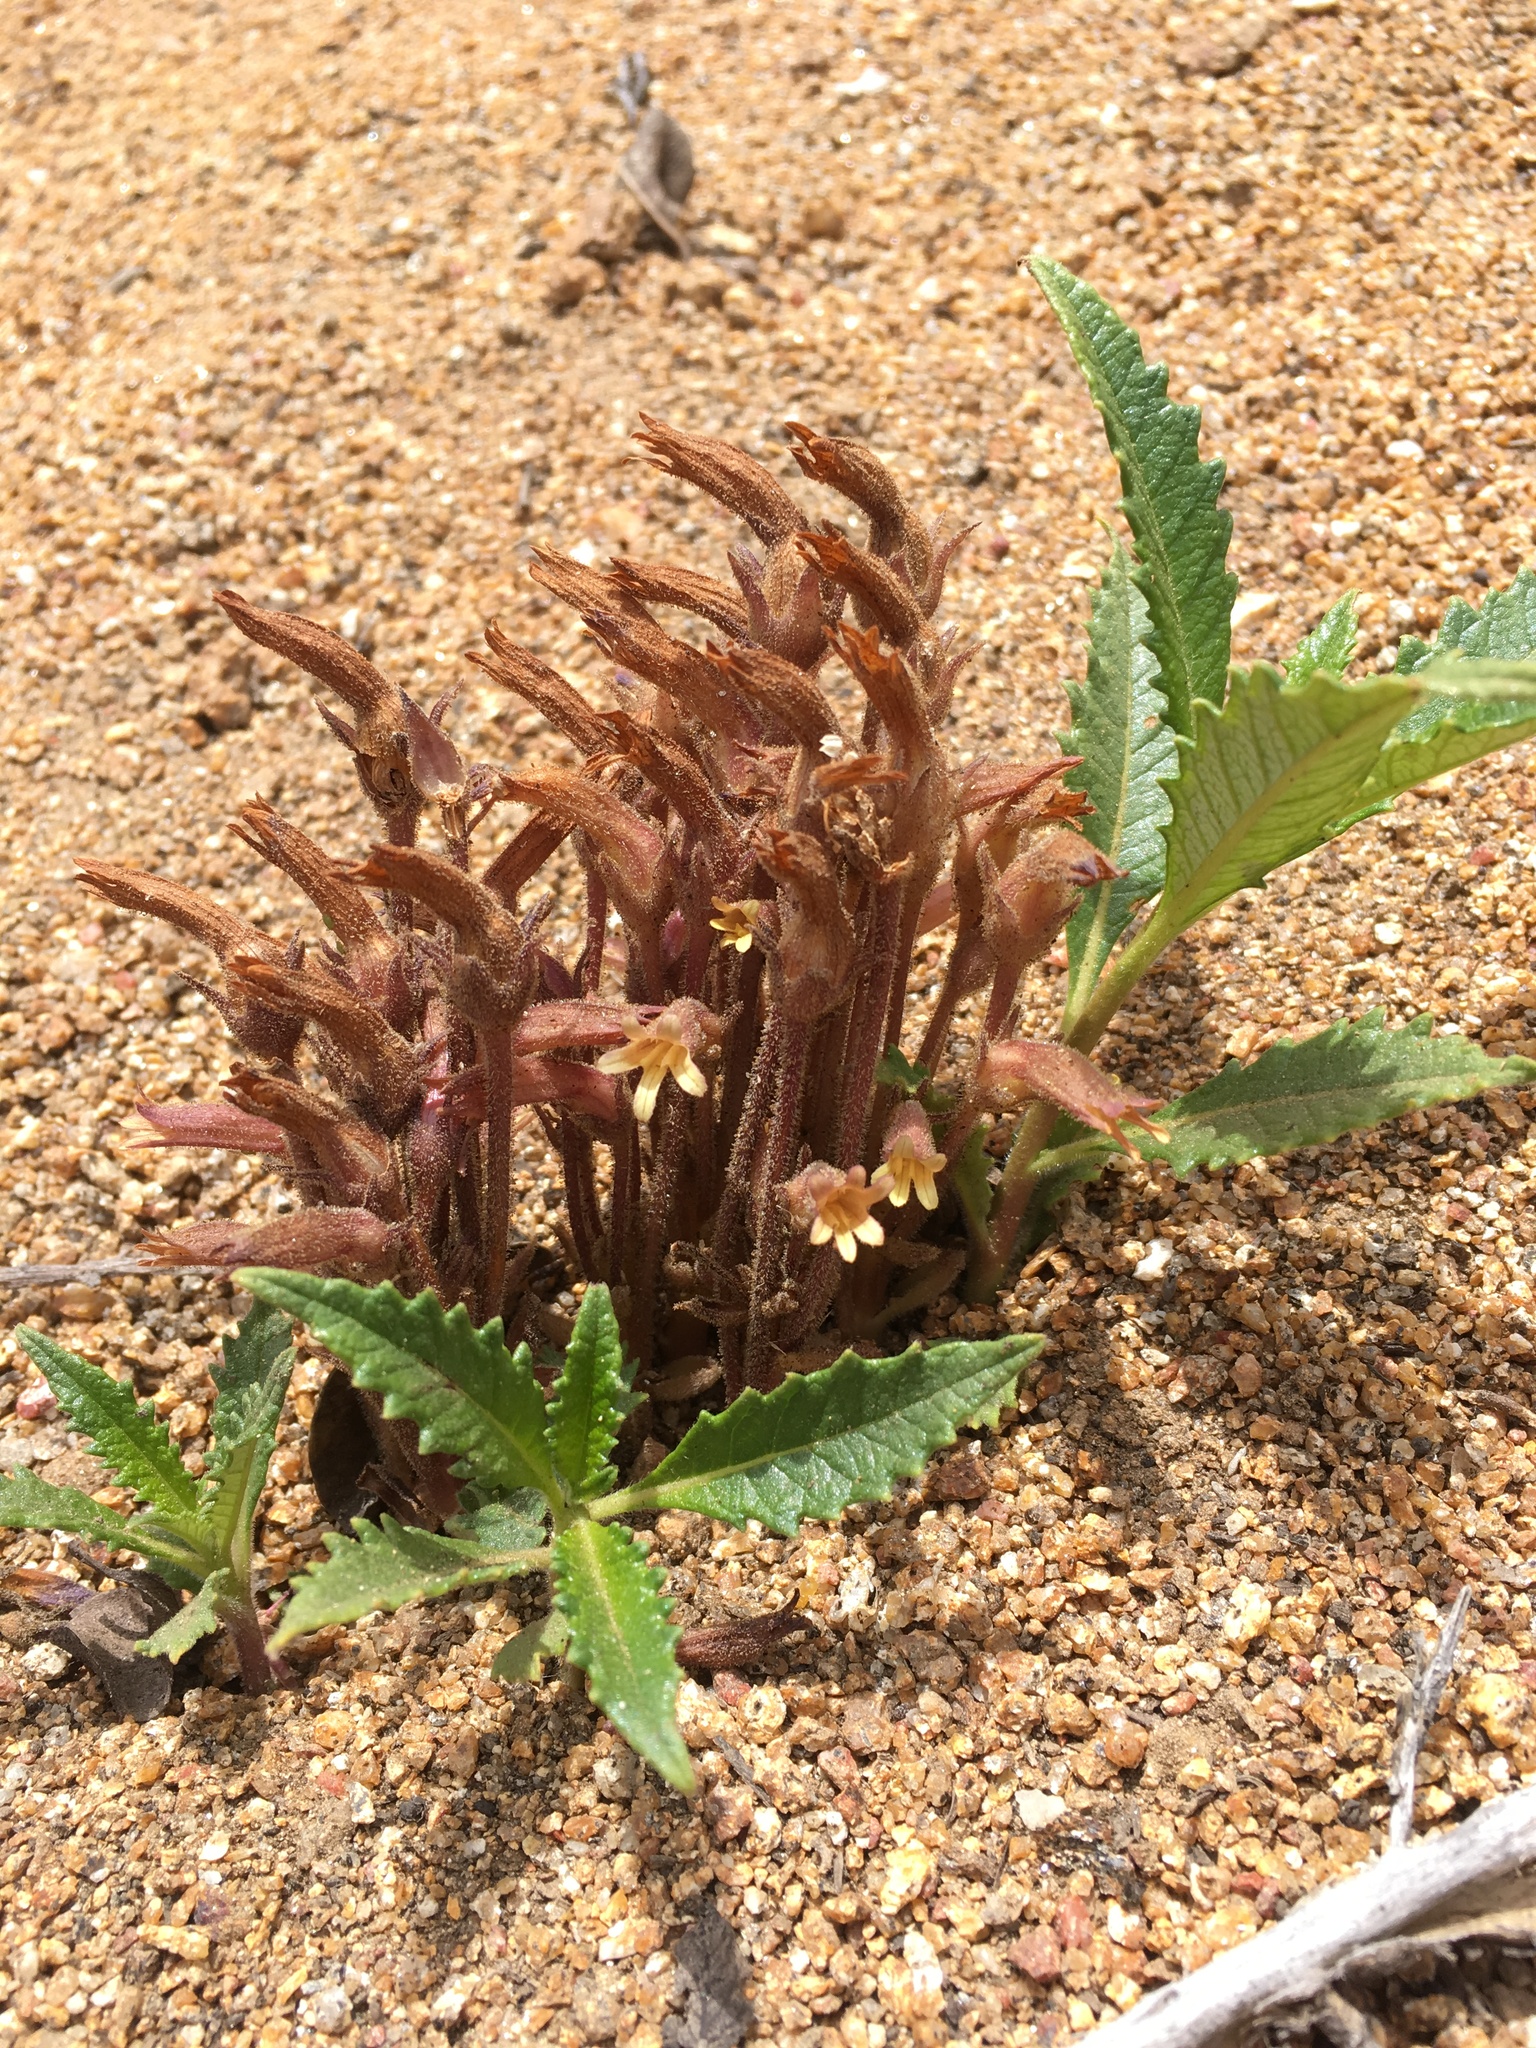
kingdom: Plantae
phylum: Tracheophyta
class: Magnoliopsida
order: Lamiales
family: Orobanchaceae
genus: Aphyllon
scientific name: Aphyllon franciscanum
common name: San francisco broomrape
